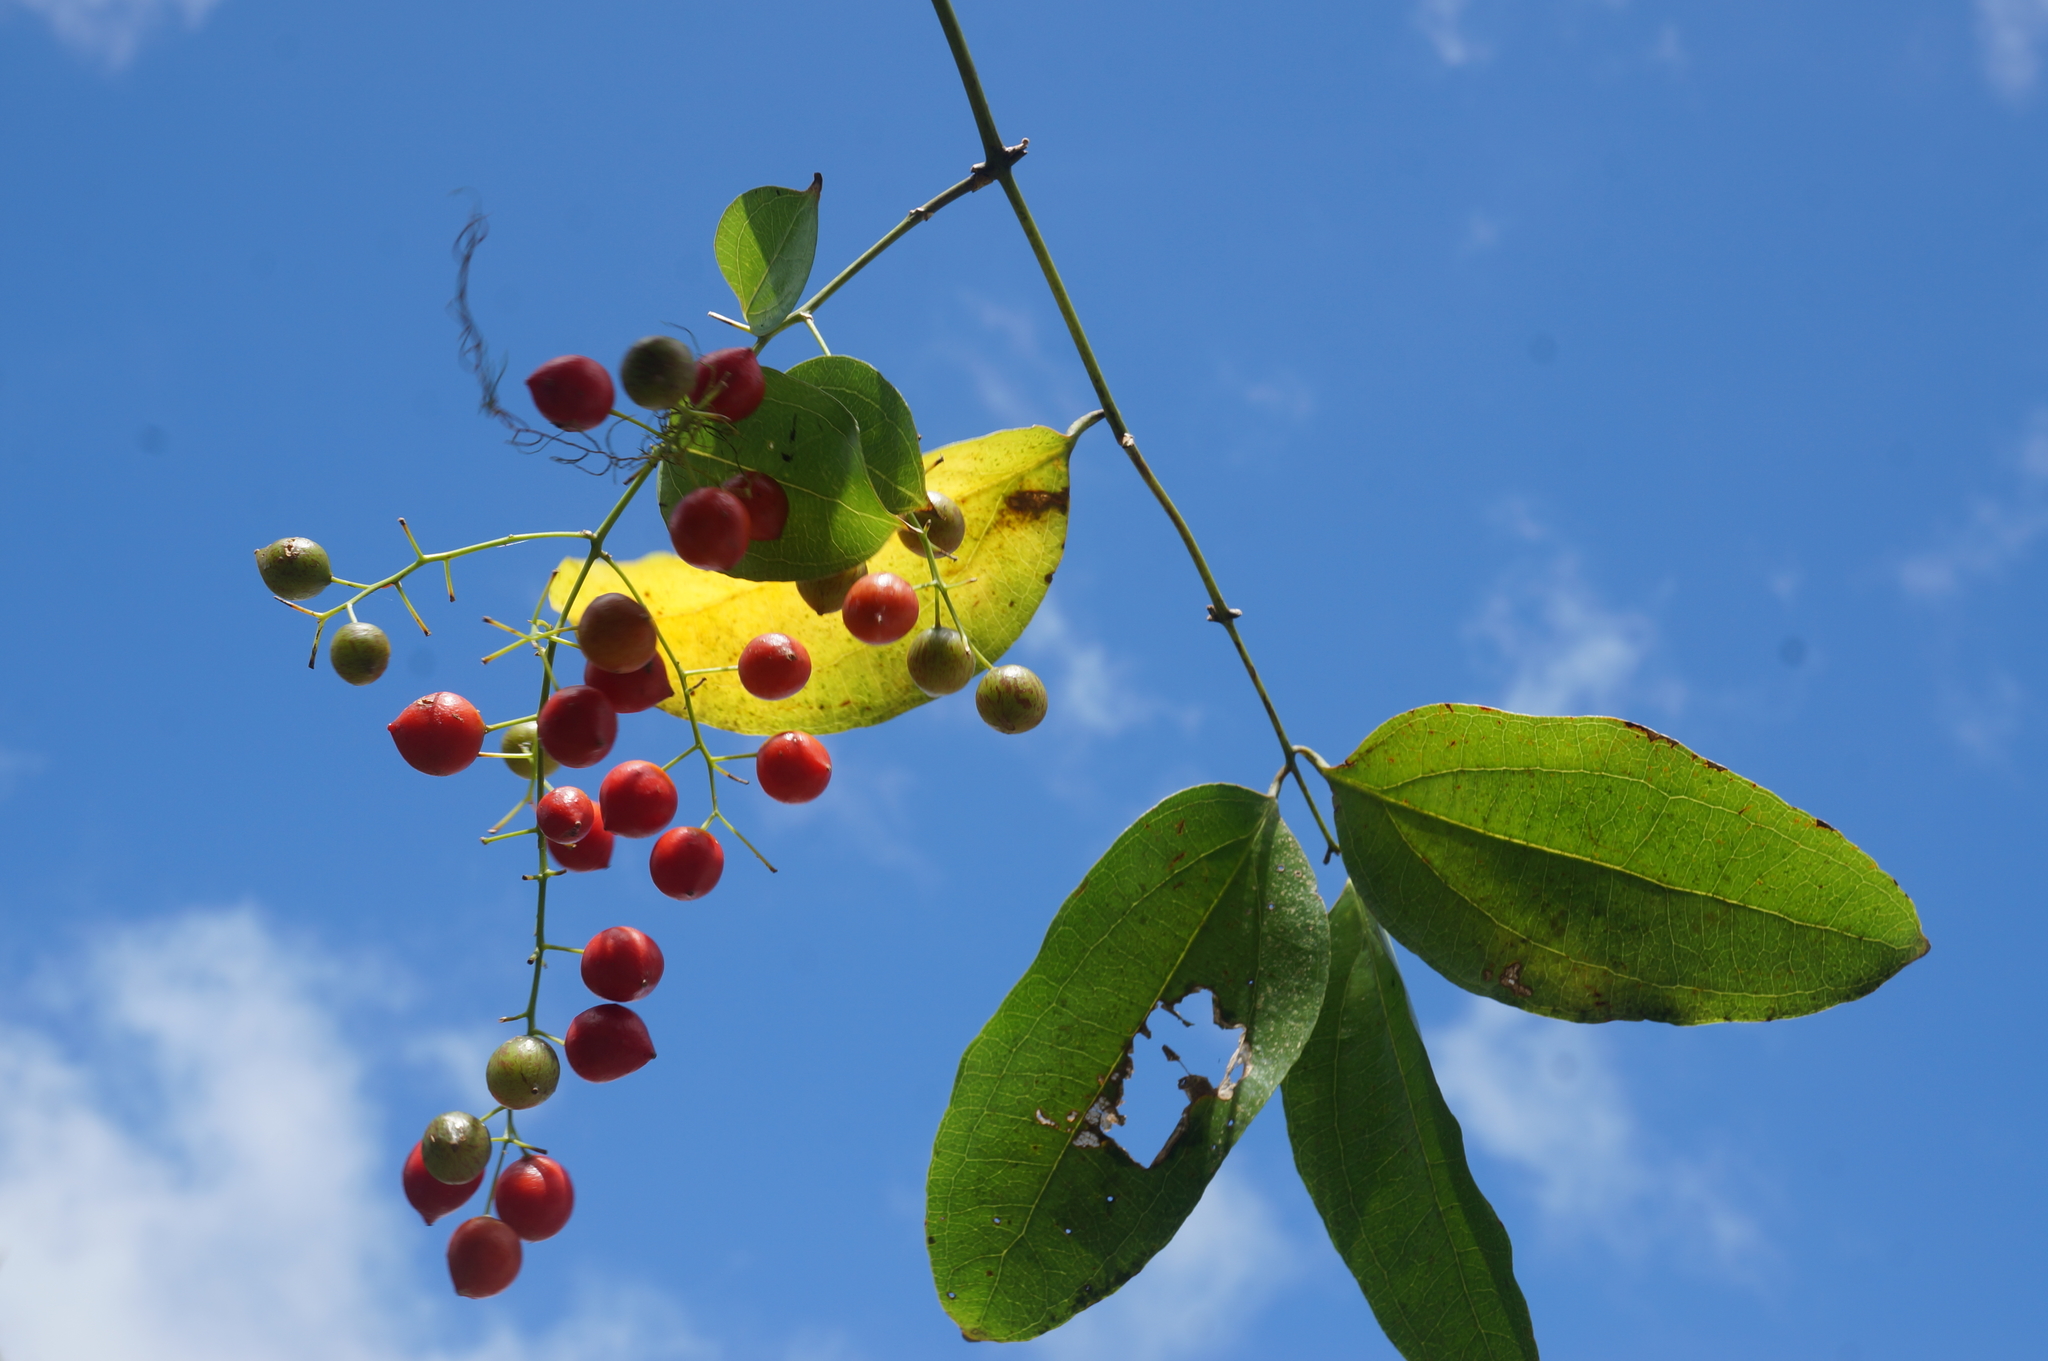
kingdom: Plantae
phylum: Tracheophyta
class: Liliopsida
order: Liliales
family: Ripogonaceae
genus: Ripogonum
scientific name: Ripogonum scandens
